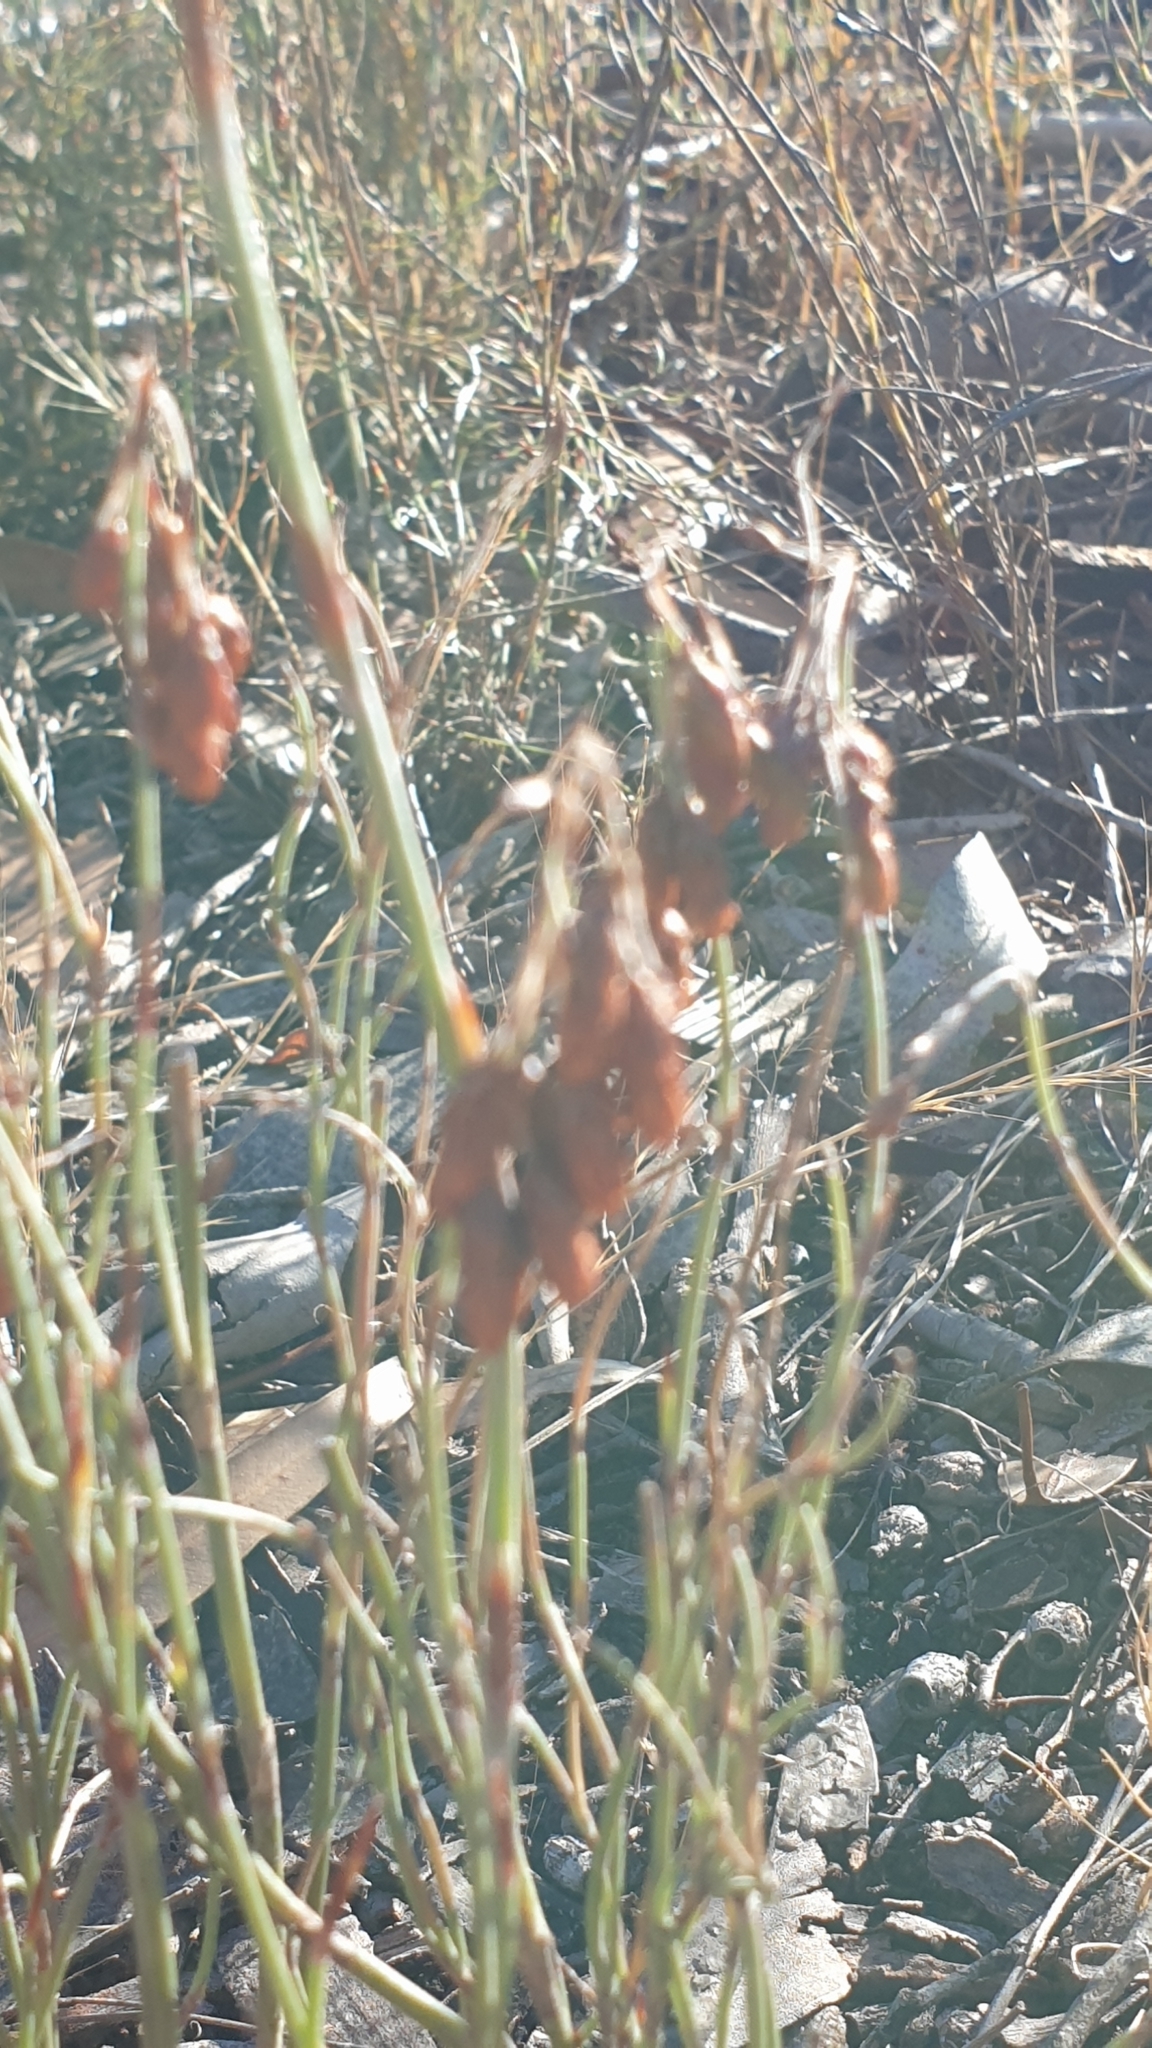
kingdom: Plantae
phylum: Tracheophyta
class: Liliopsida
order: Poales
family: Restionaceae
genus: Hypolaena
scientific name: Hypolaena fastigiata
